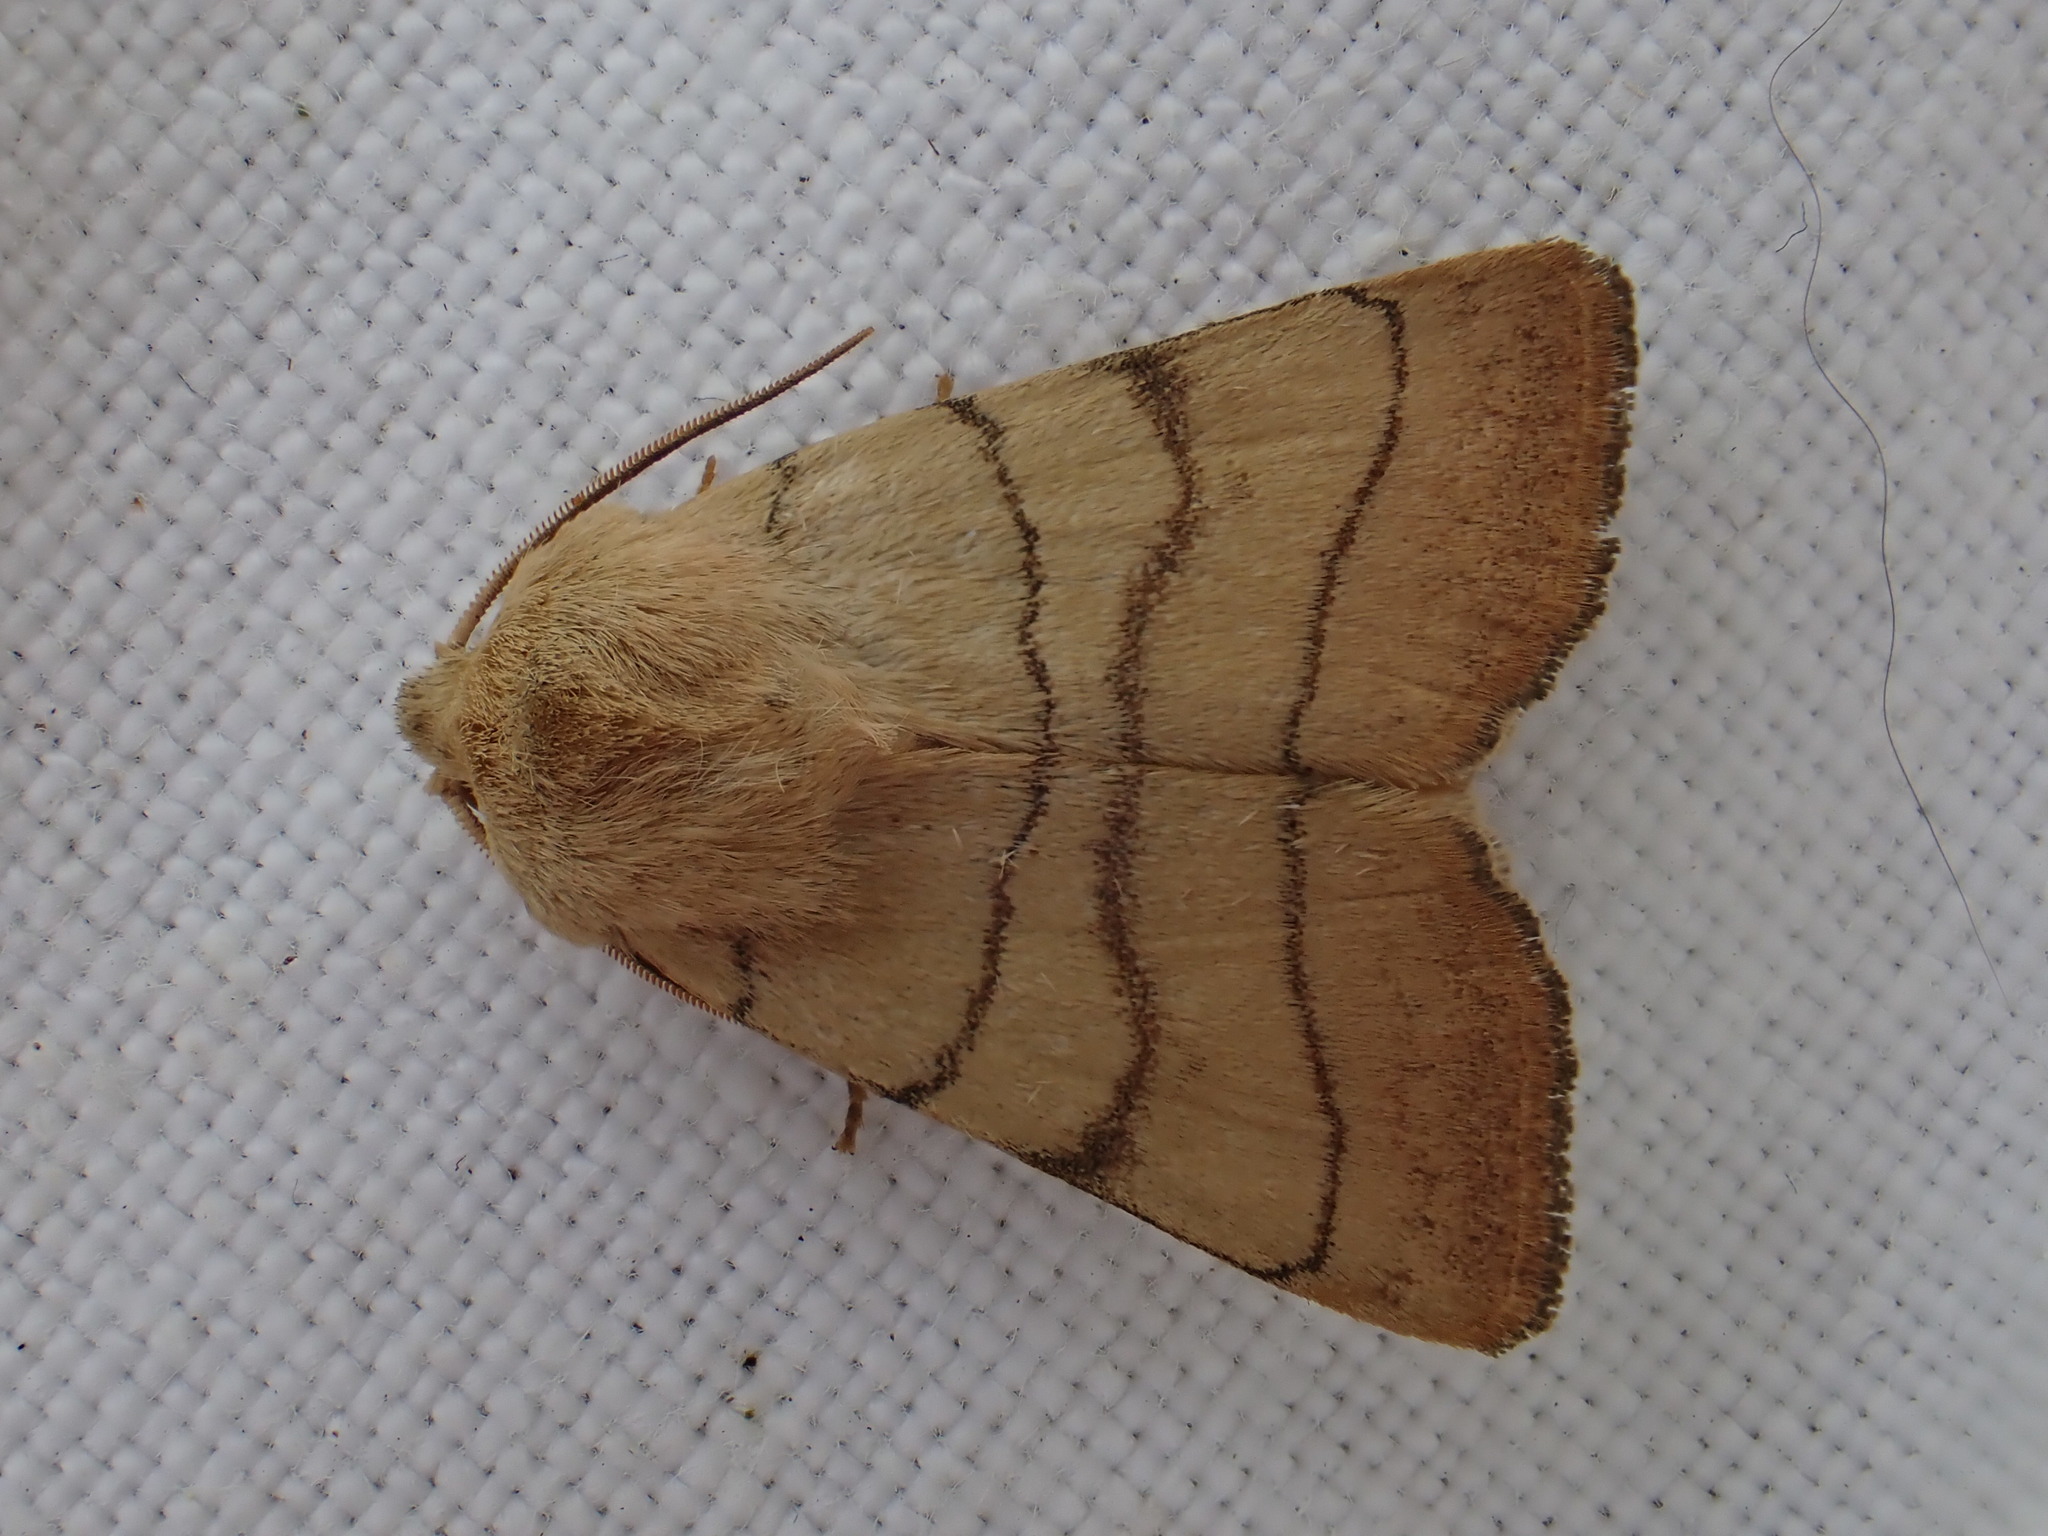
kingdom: Animalia
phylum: Arthropoda
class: Insecta
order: Lepidoptera
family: Noctuidae
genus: Charanyca
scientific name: Charanyca trigrammica
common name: Treble lines
